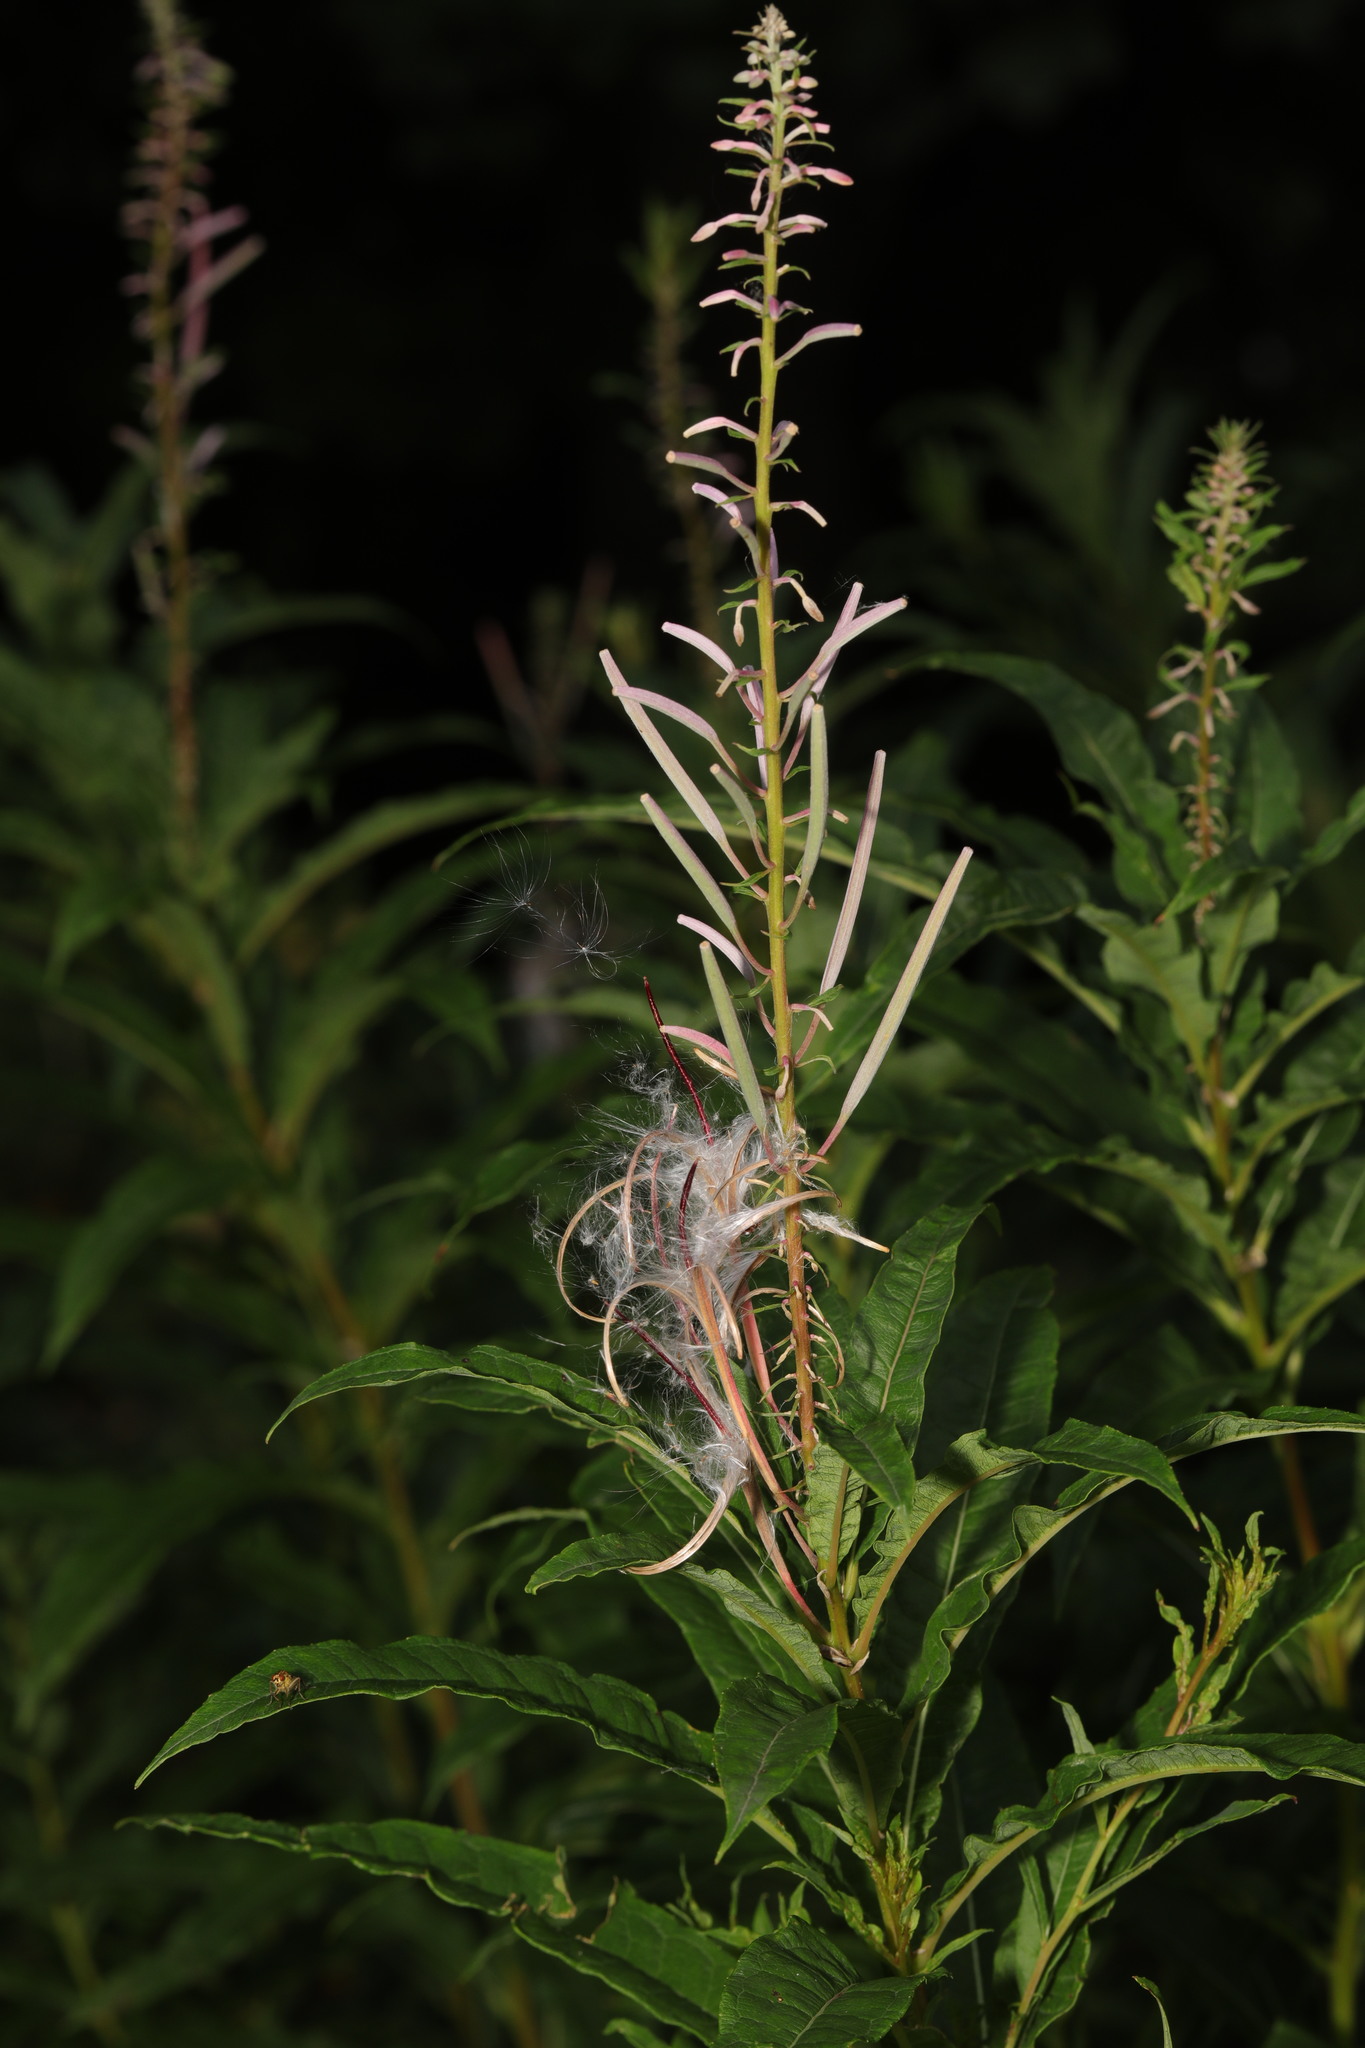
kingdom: Plantae
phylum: Tracheophyta
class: Magnoliopsida
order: Myrtales
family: Onagraceae
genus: Chamaenerion
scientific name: Chamaenerion angustifolium
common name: Fireweed
